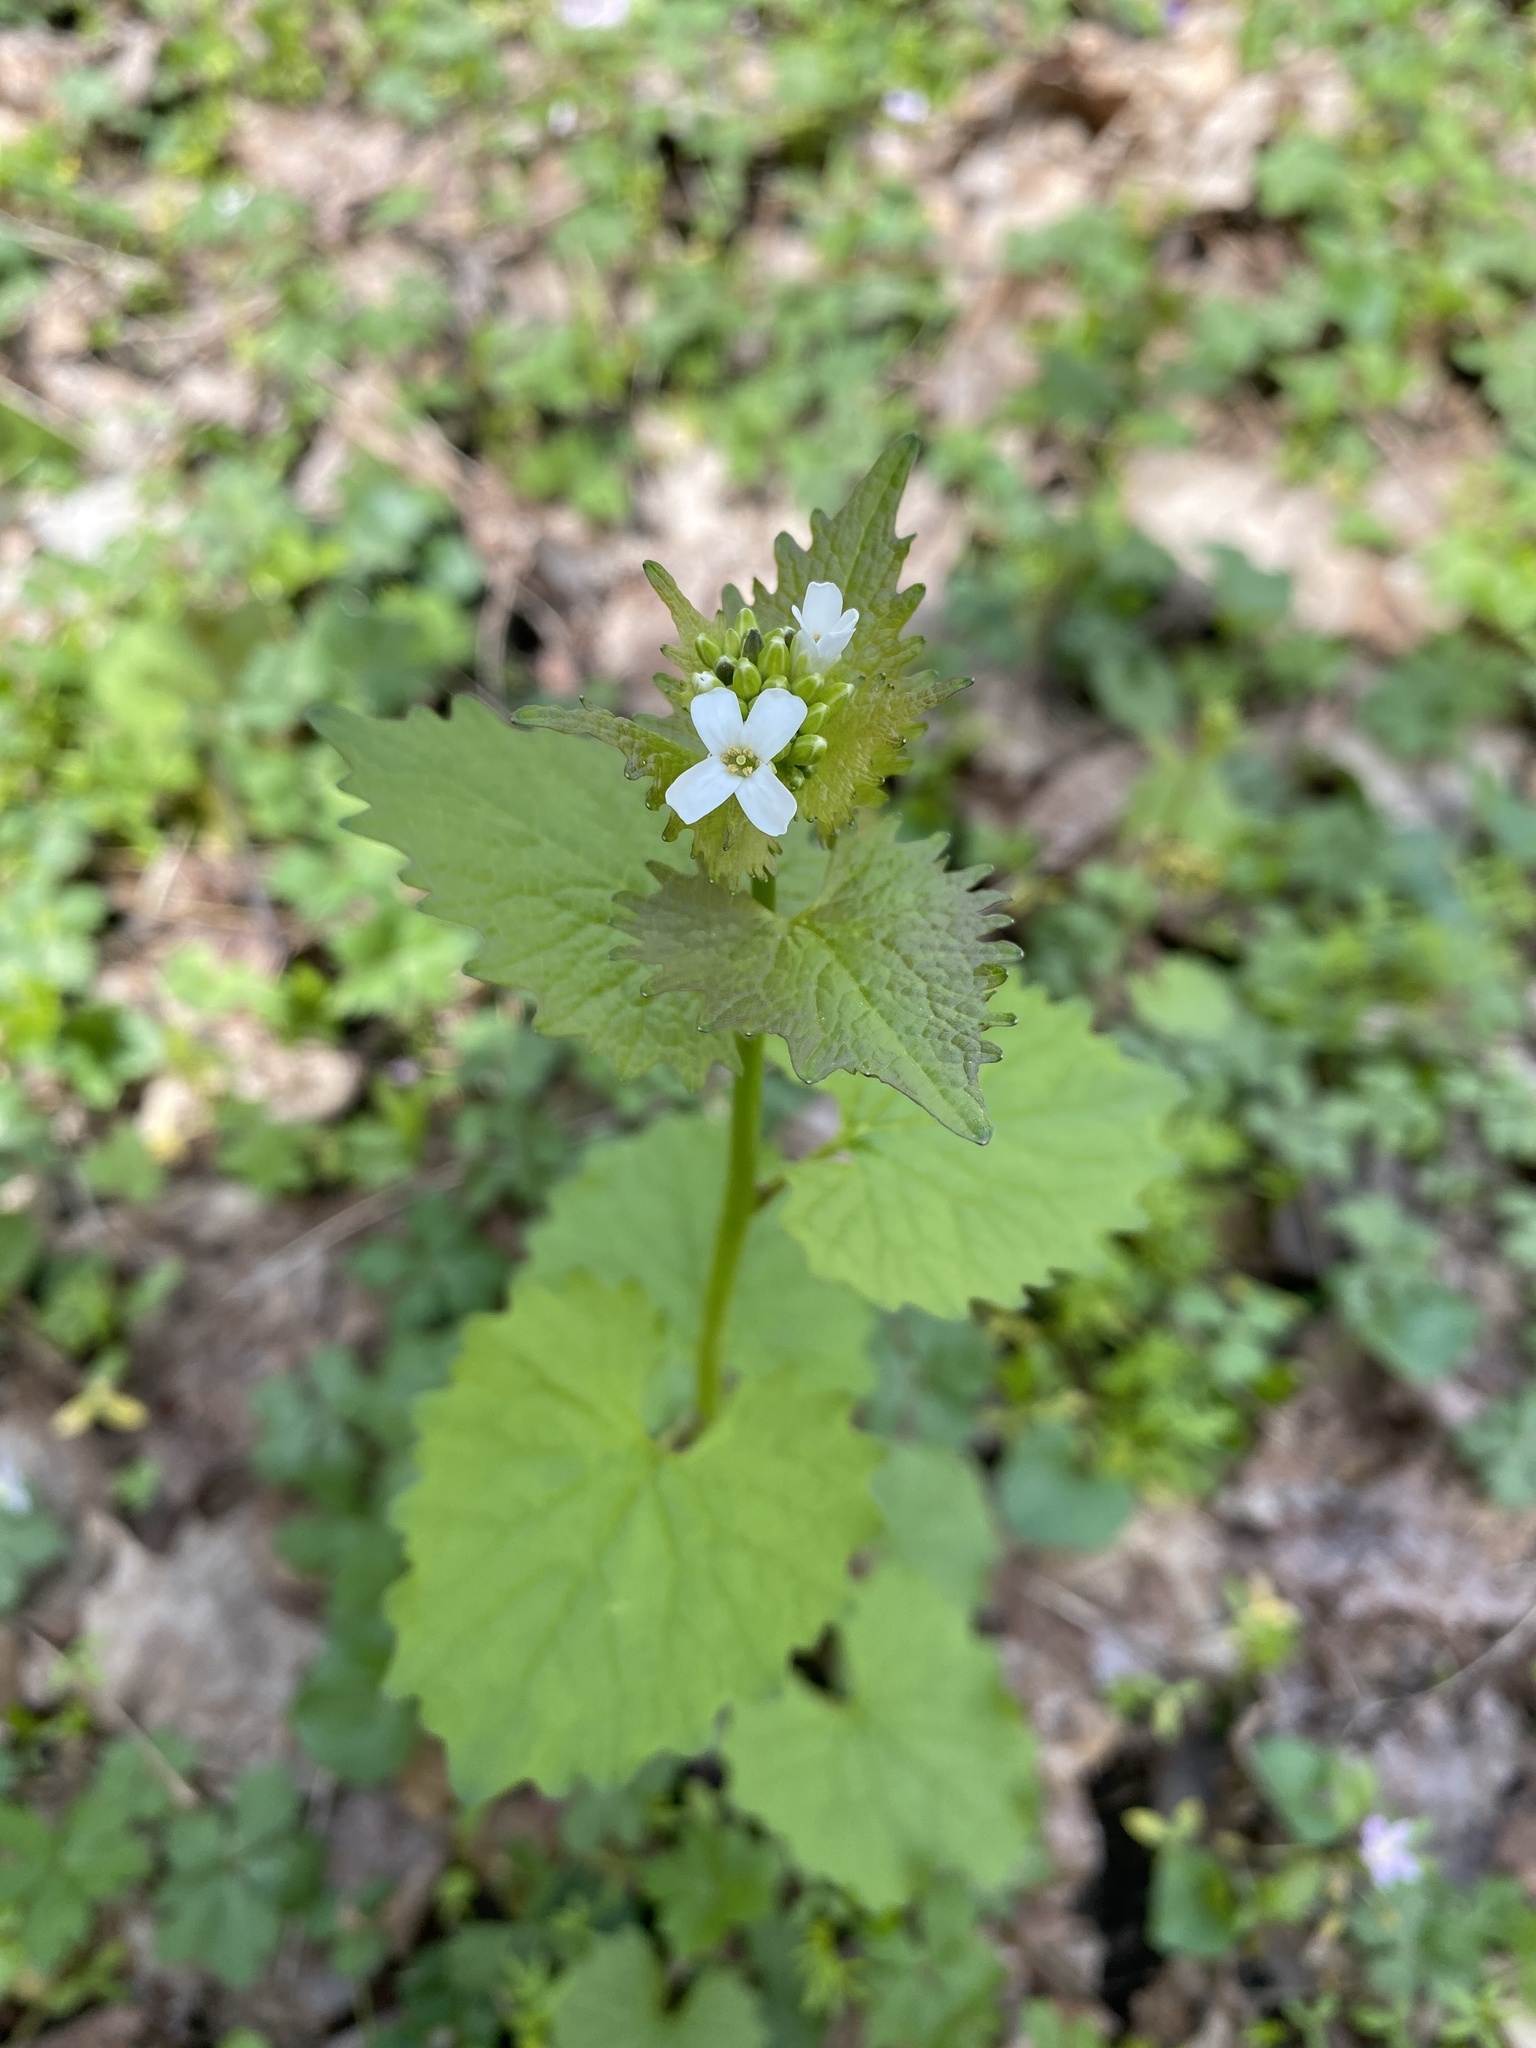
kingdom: Plantae
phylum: Tracheophyta
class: Magnoliopsida
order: Brassicales
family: Brassicaceae
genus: Alliaria
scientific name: Alliaria petiolata
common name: Garlic mustard
